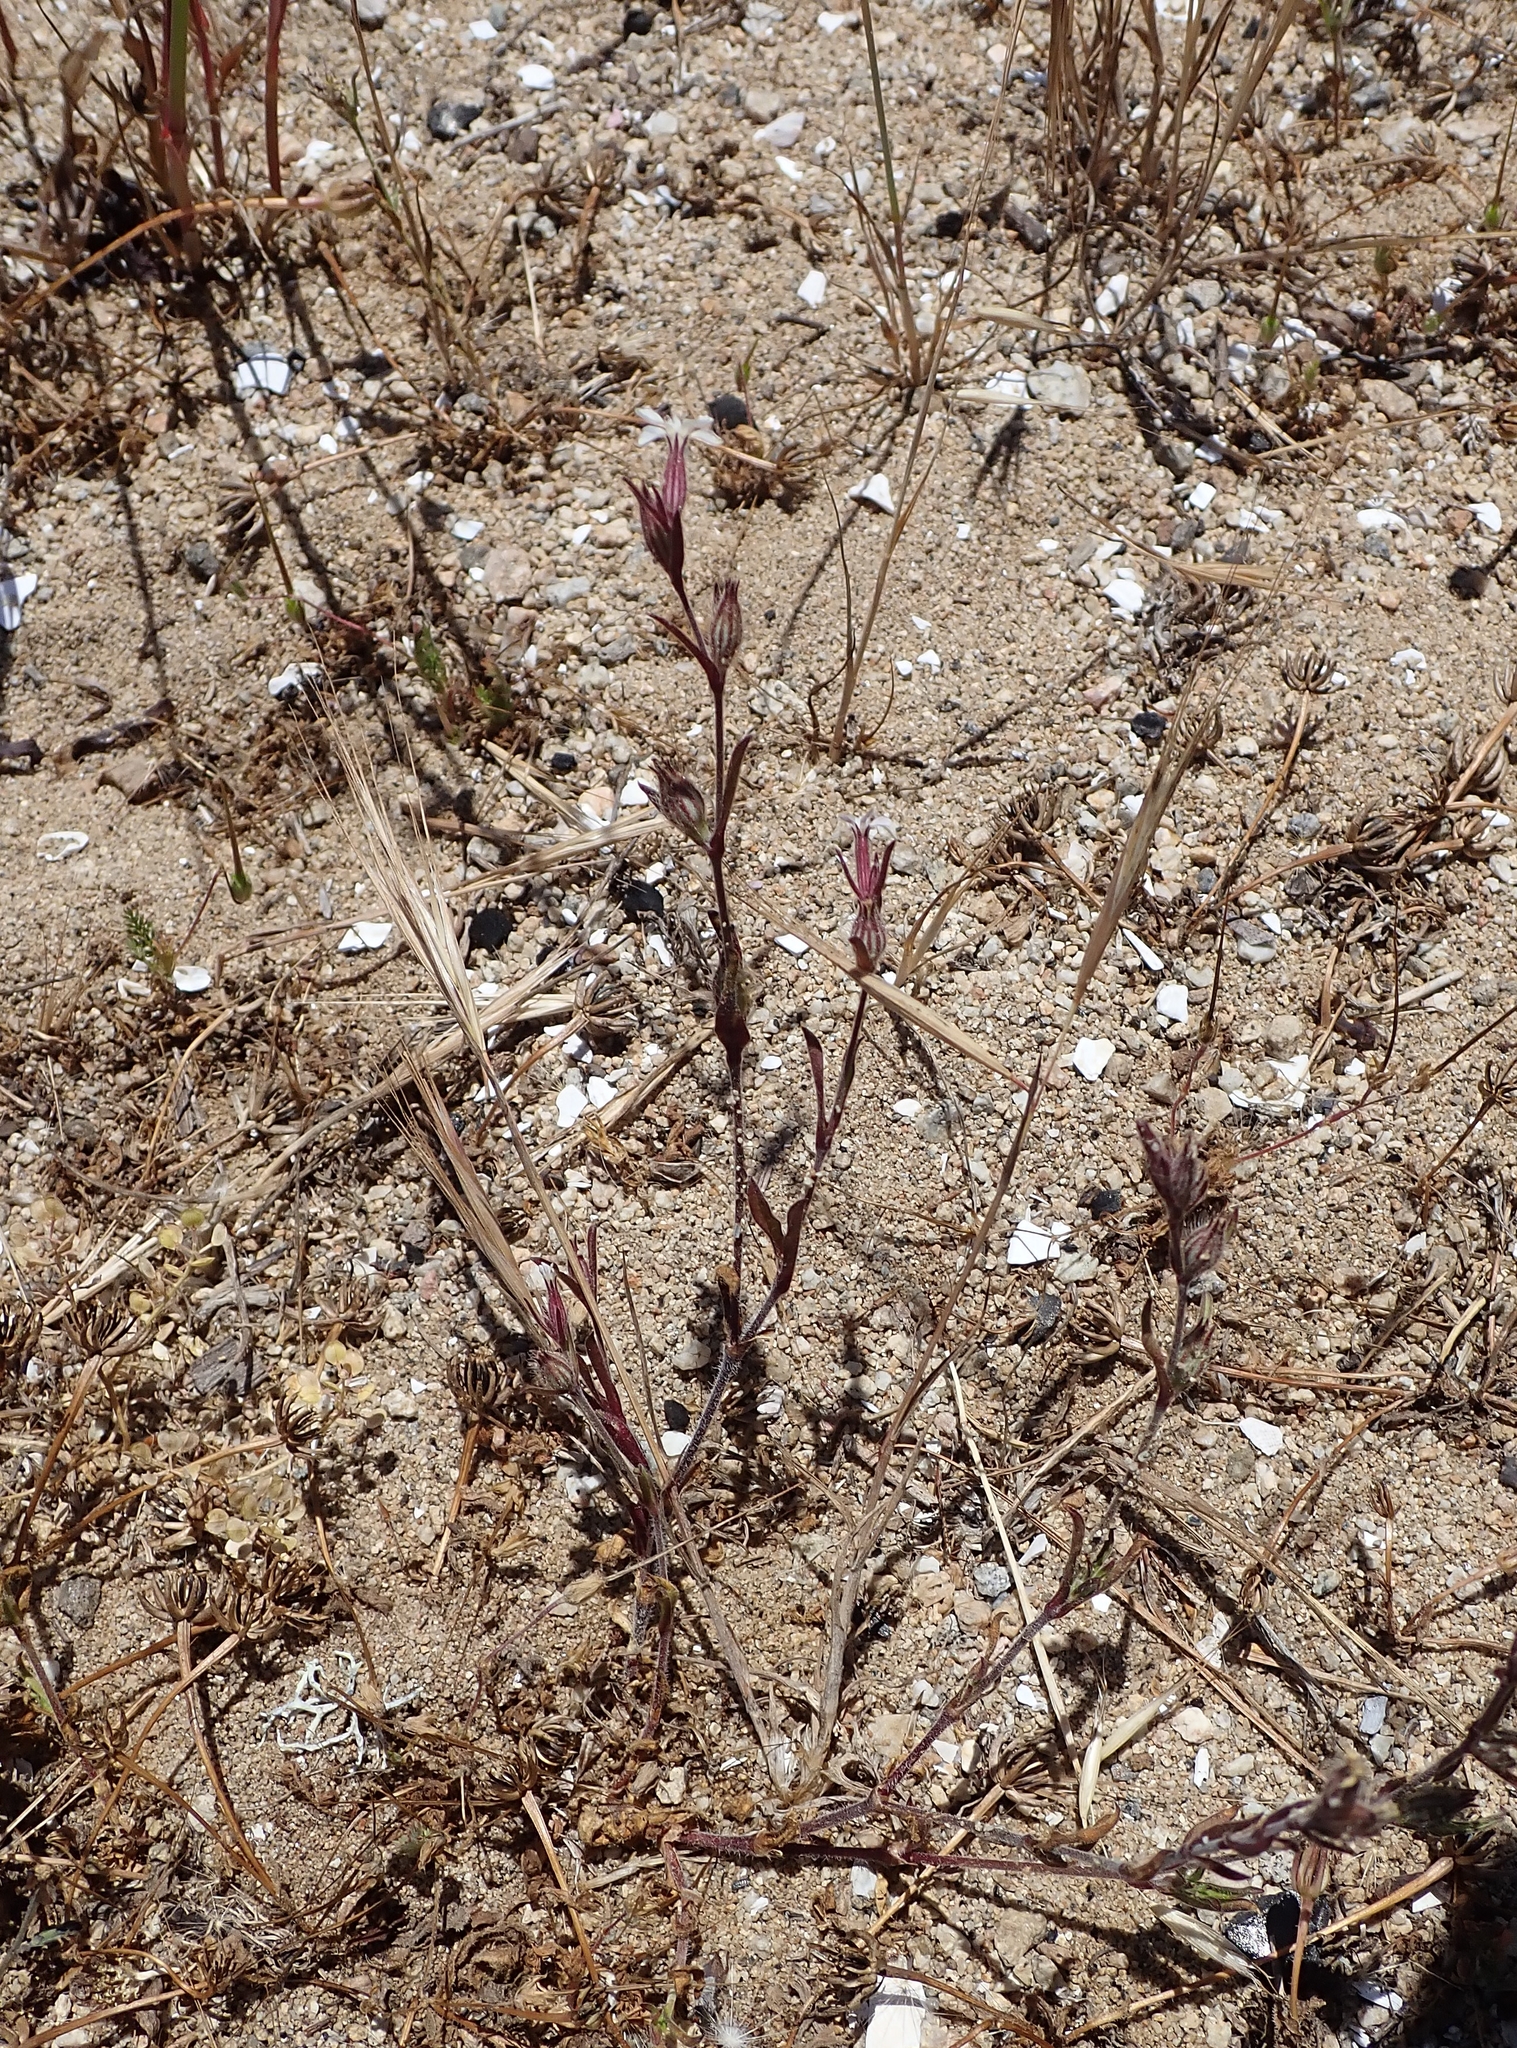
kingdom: Plantae
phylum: Tracheophyta
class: Magnoliopsida
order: Caryophyllales
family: Caryophyllaceae
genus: Silene
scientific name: Silene gallica
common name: Small-flowered catchfly
